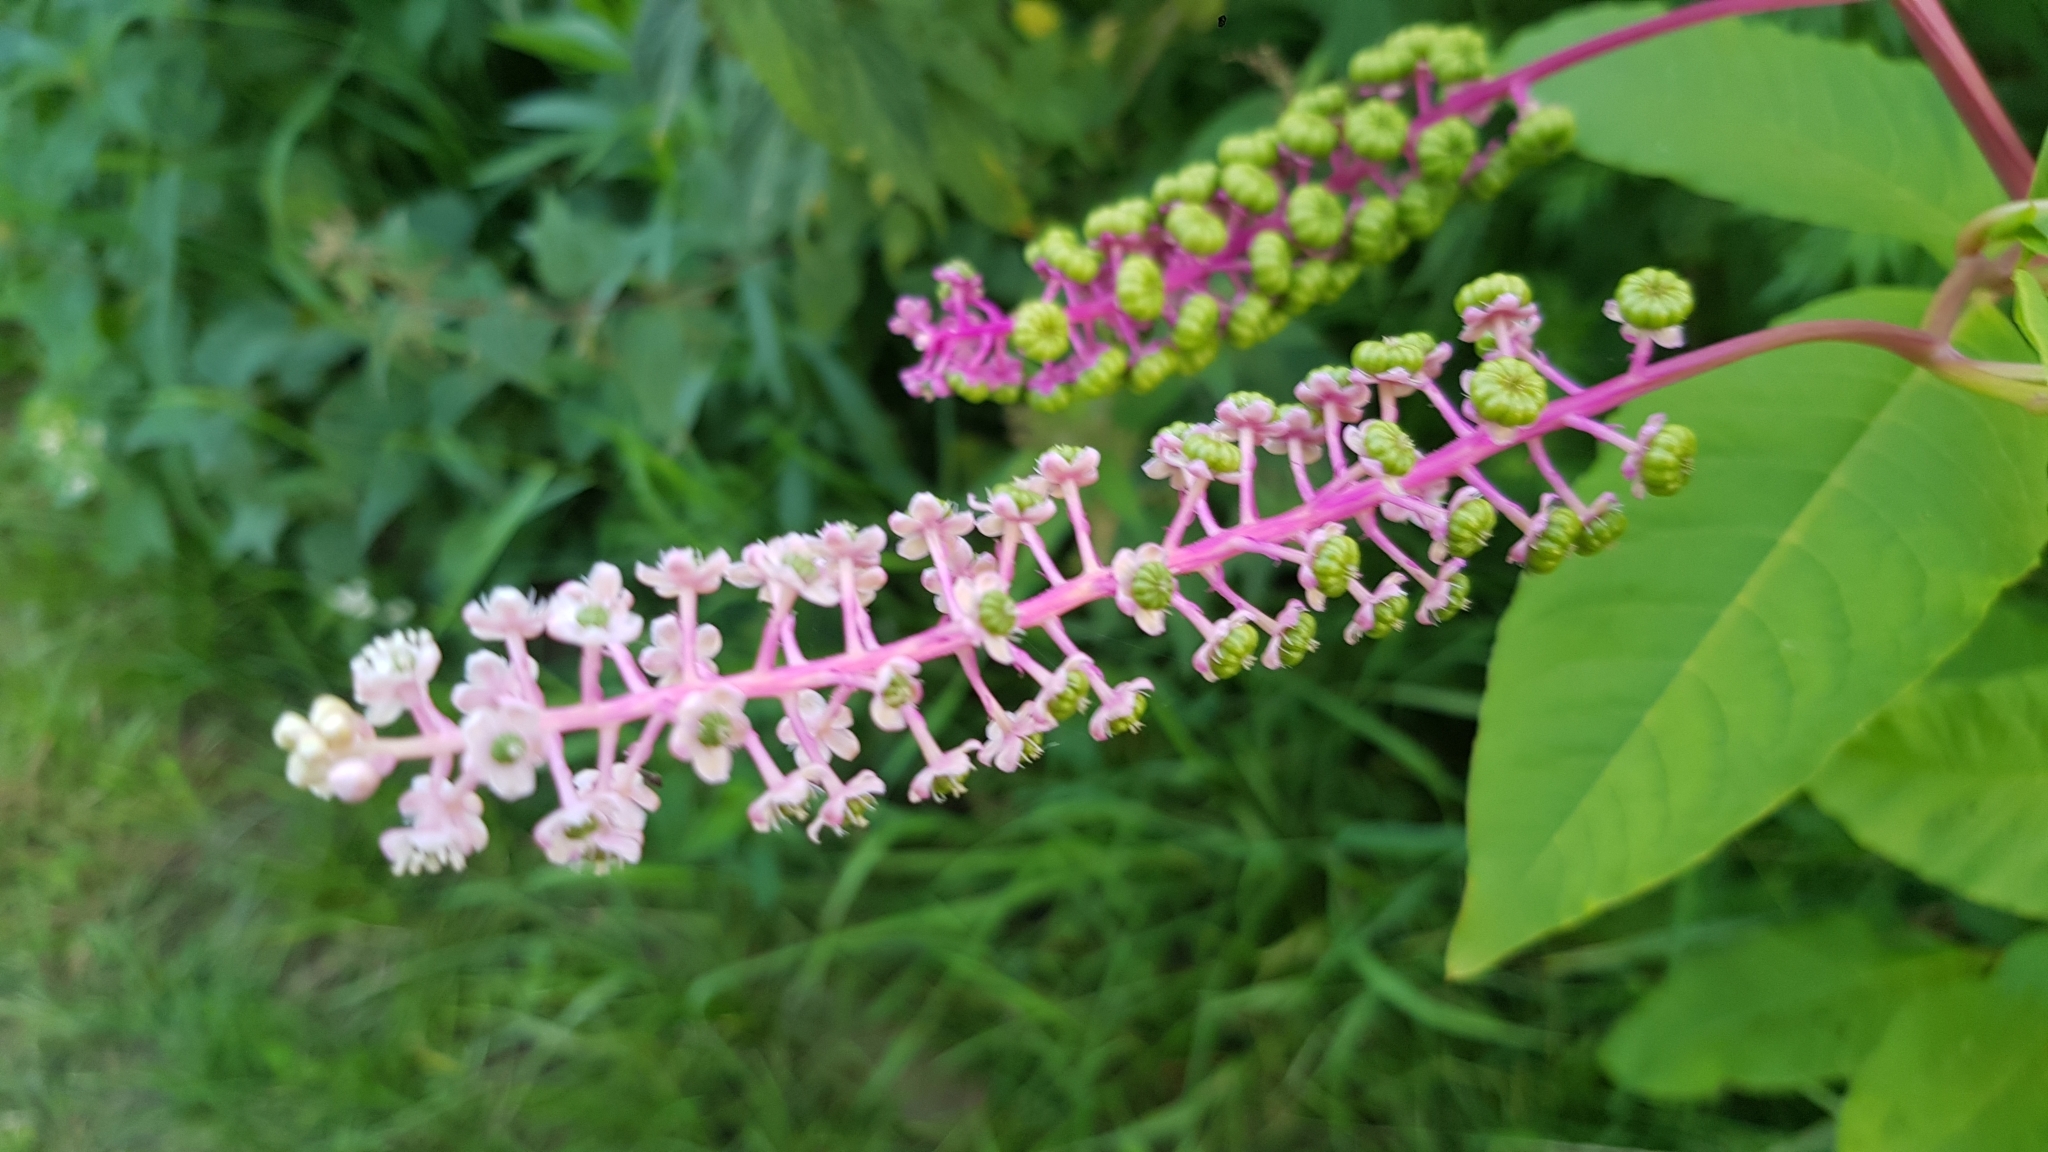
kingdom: Plantae
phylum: Tracheophyta
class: Magnoliopsida
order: Caryophyllales
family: Phytolaccaceae
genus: Phytolacca
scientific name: Phytolacca americana
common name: American pokeweed
